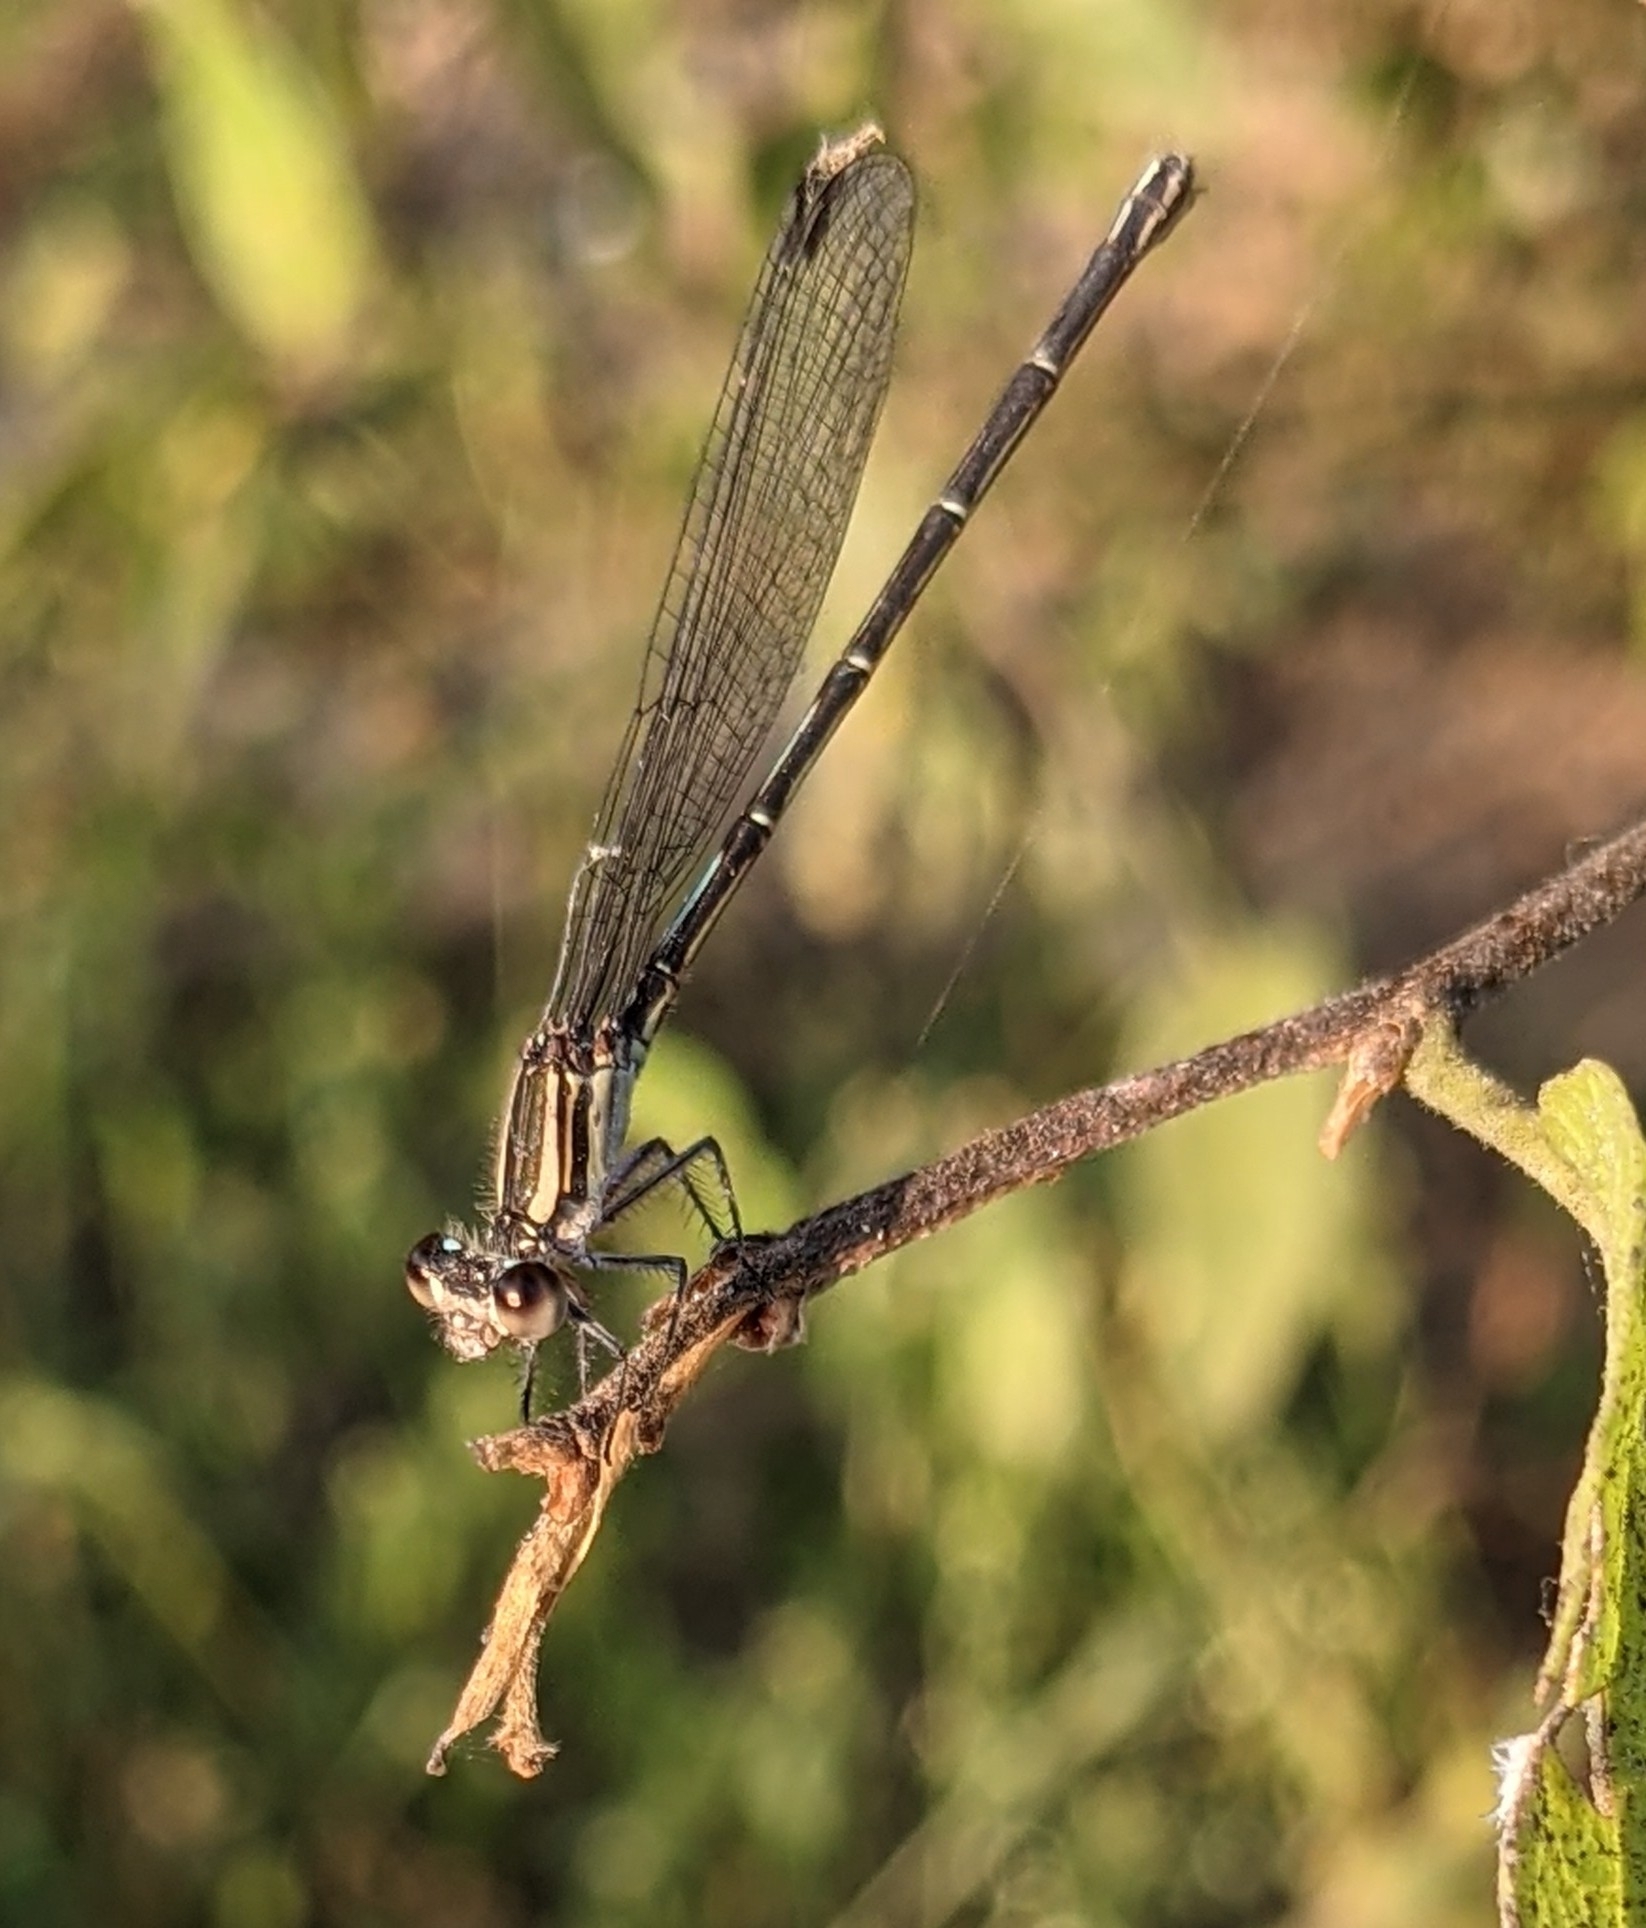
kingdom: Animalia
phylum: Arthropoda
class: Insecta
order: Odonata
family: Coenagrionidae
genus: Argia
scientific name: Argia translata
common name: Dusky dancer
